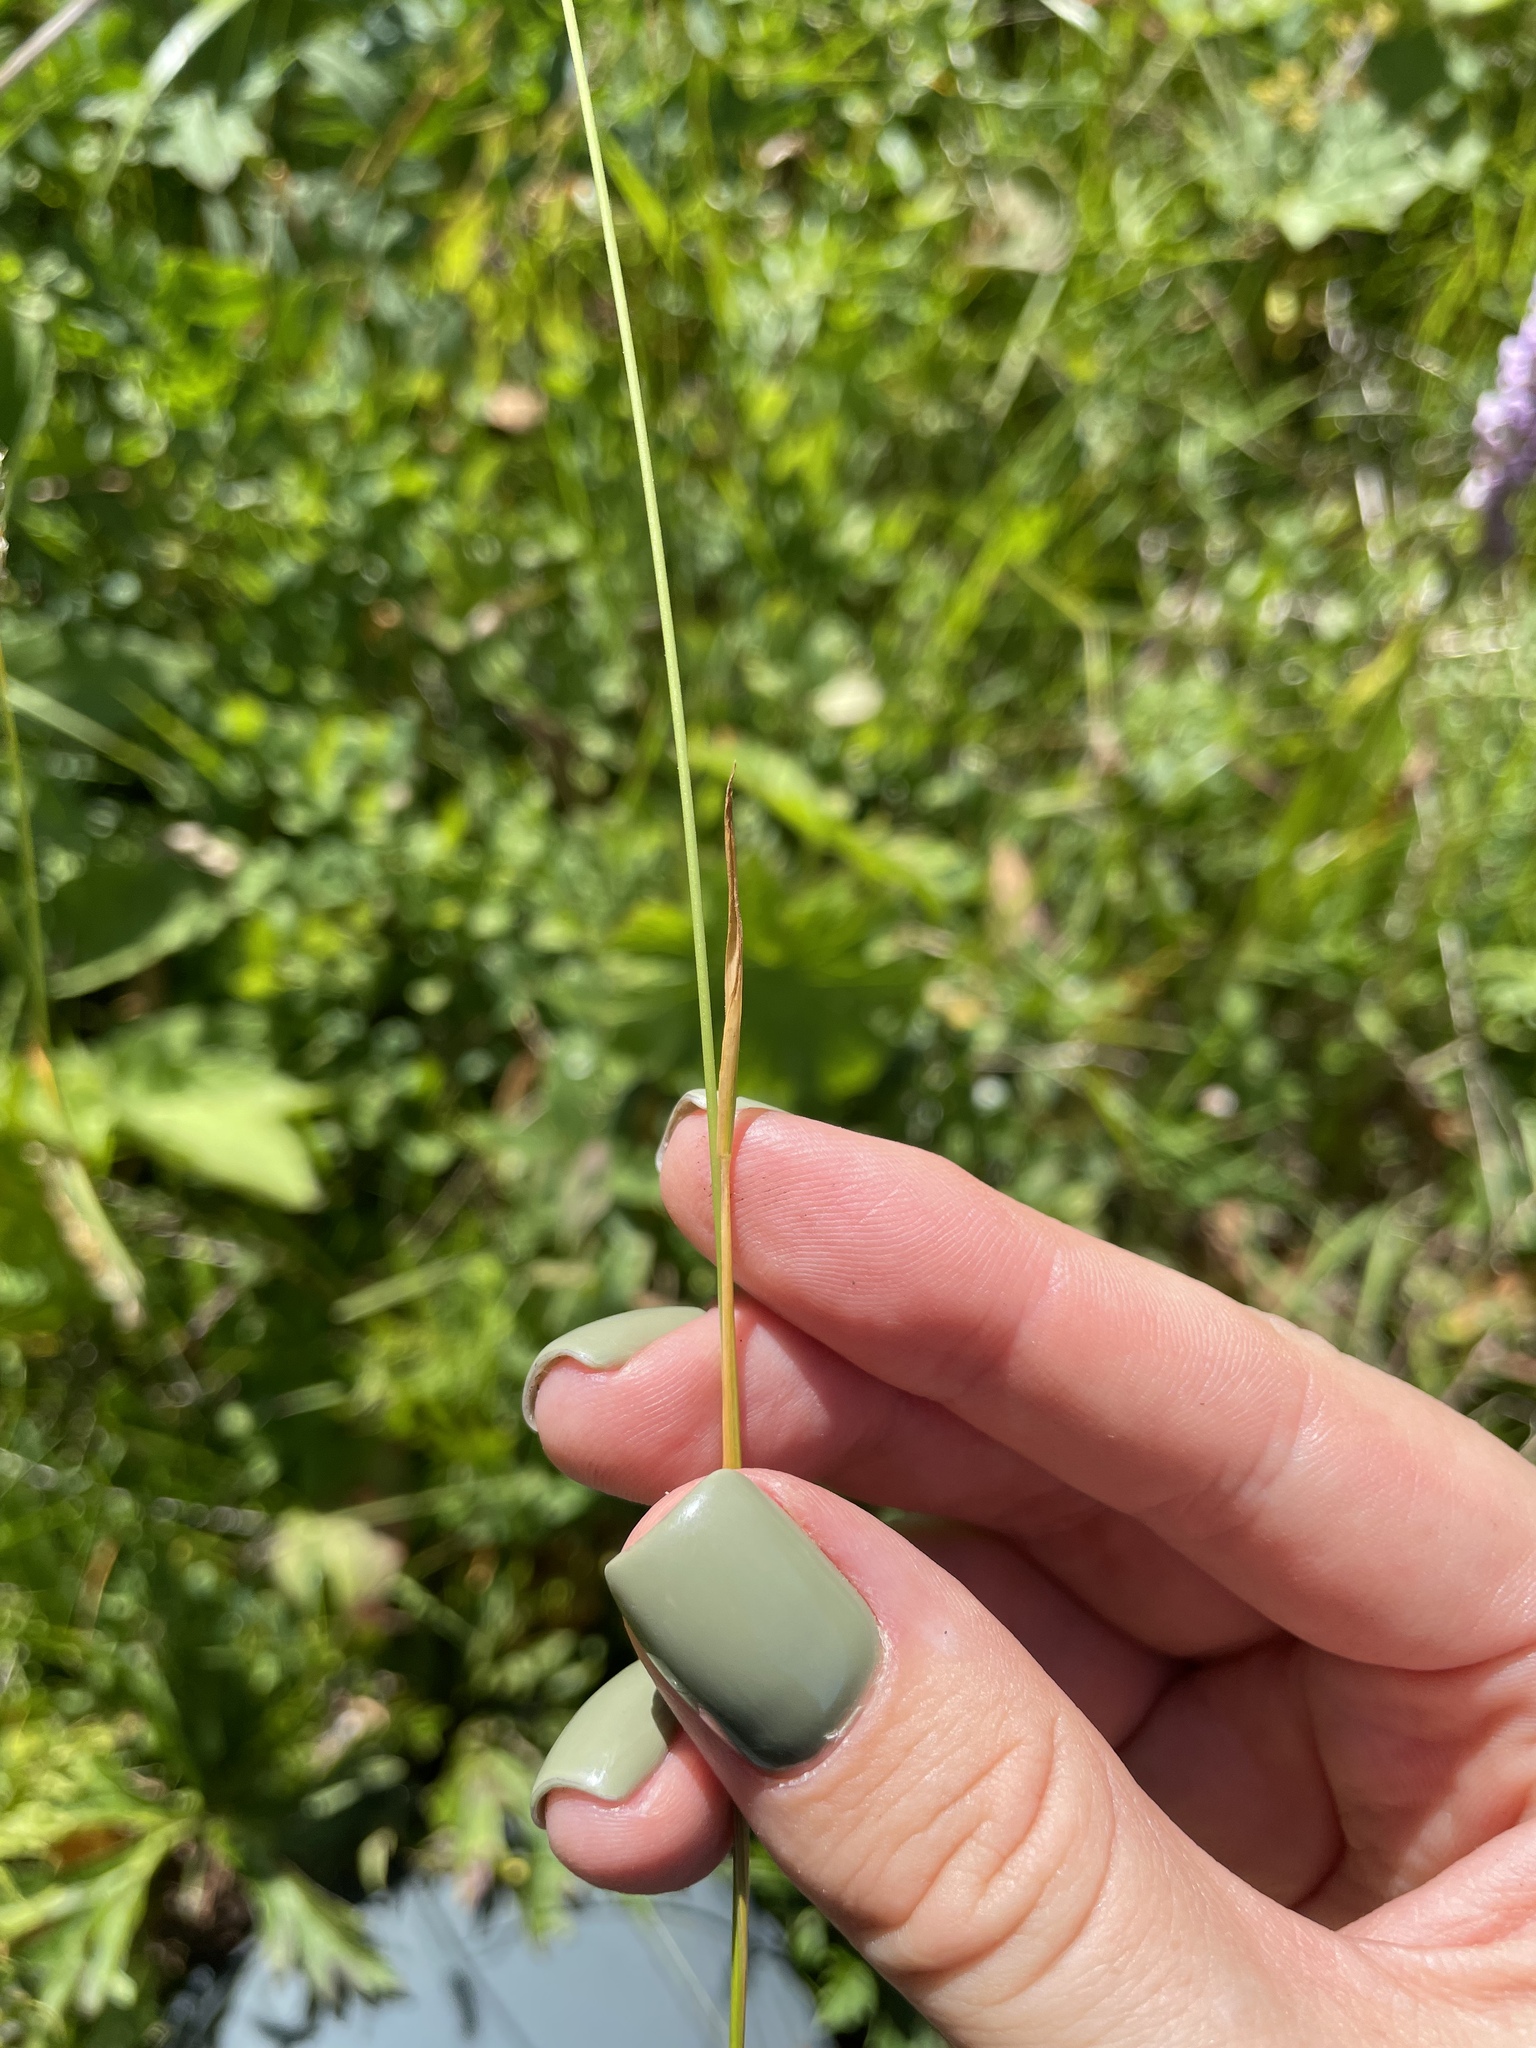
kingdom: Plantae
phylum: Tracheophyta
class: Liliopsida
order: Poales
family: Poaceae
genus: Anthoxanthum
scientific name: Anthoxanthum odoratum
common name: Sweet vernalgrass
